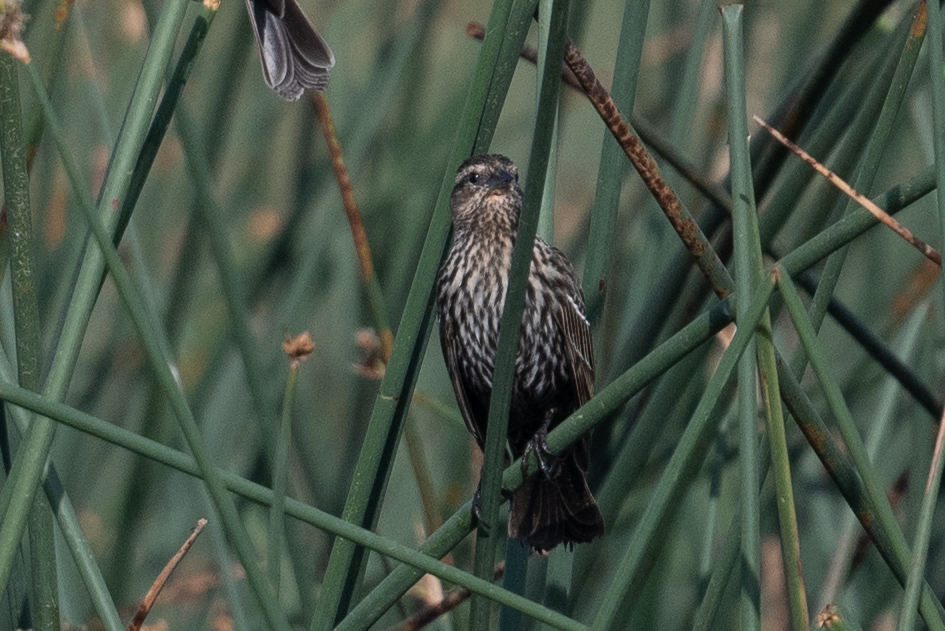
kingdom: Animalia
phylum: Chordata
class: Aves
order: Passeriformes
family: Icteridae
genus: Agelaius
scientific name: Agelaius phoeniceus
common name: Red-winged blackbird
